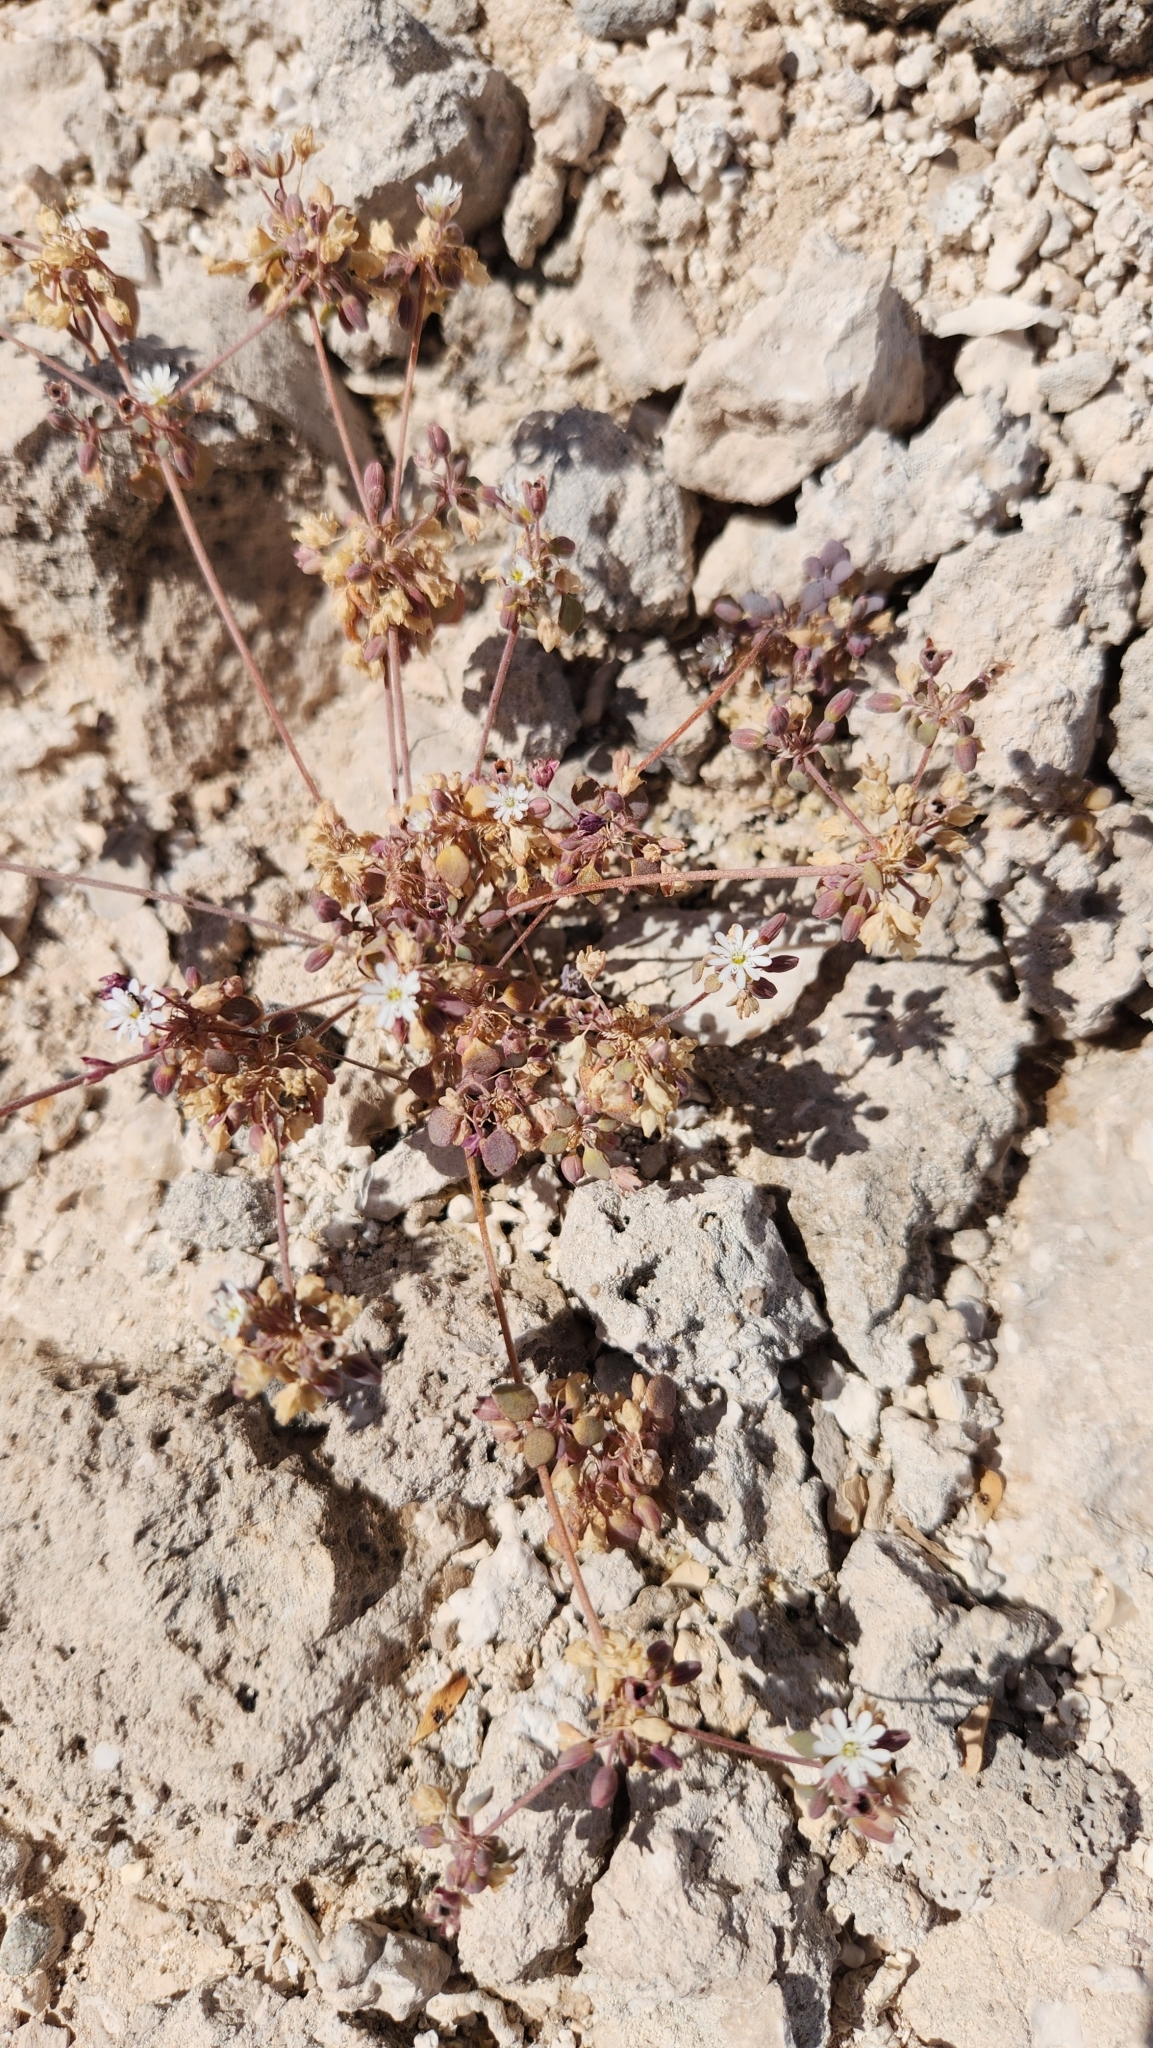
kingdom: Plantae
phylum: Tracheophyta
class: Magnoliopsida
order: Caryophyllales
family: Caryophyllaceae
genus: Drymaria
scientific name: Drymaria holosteoides
